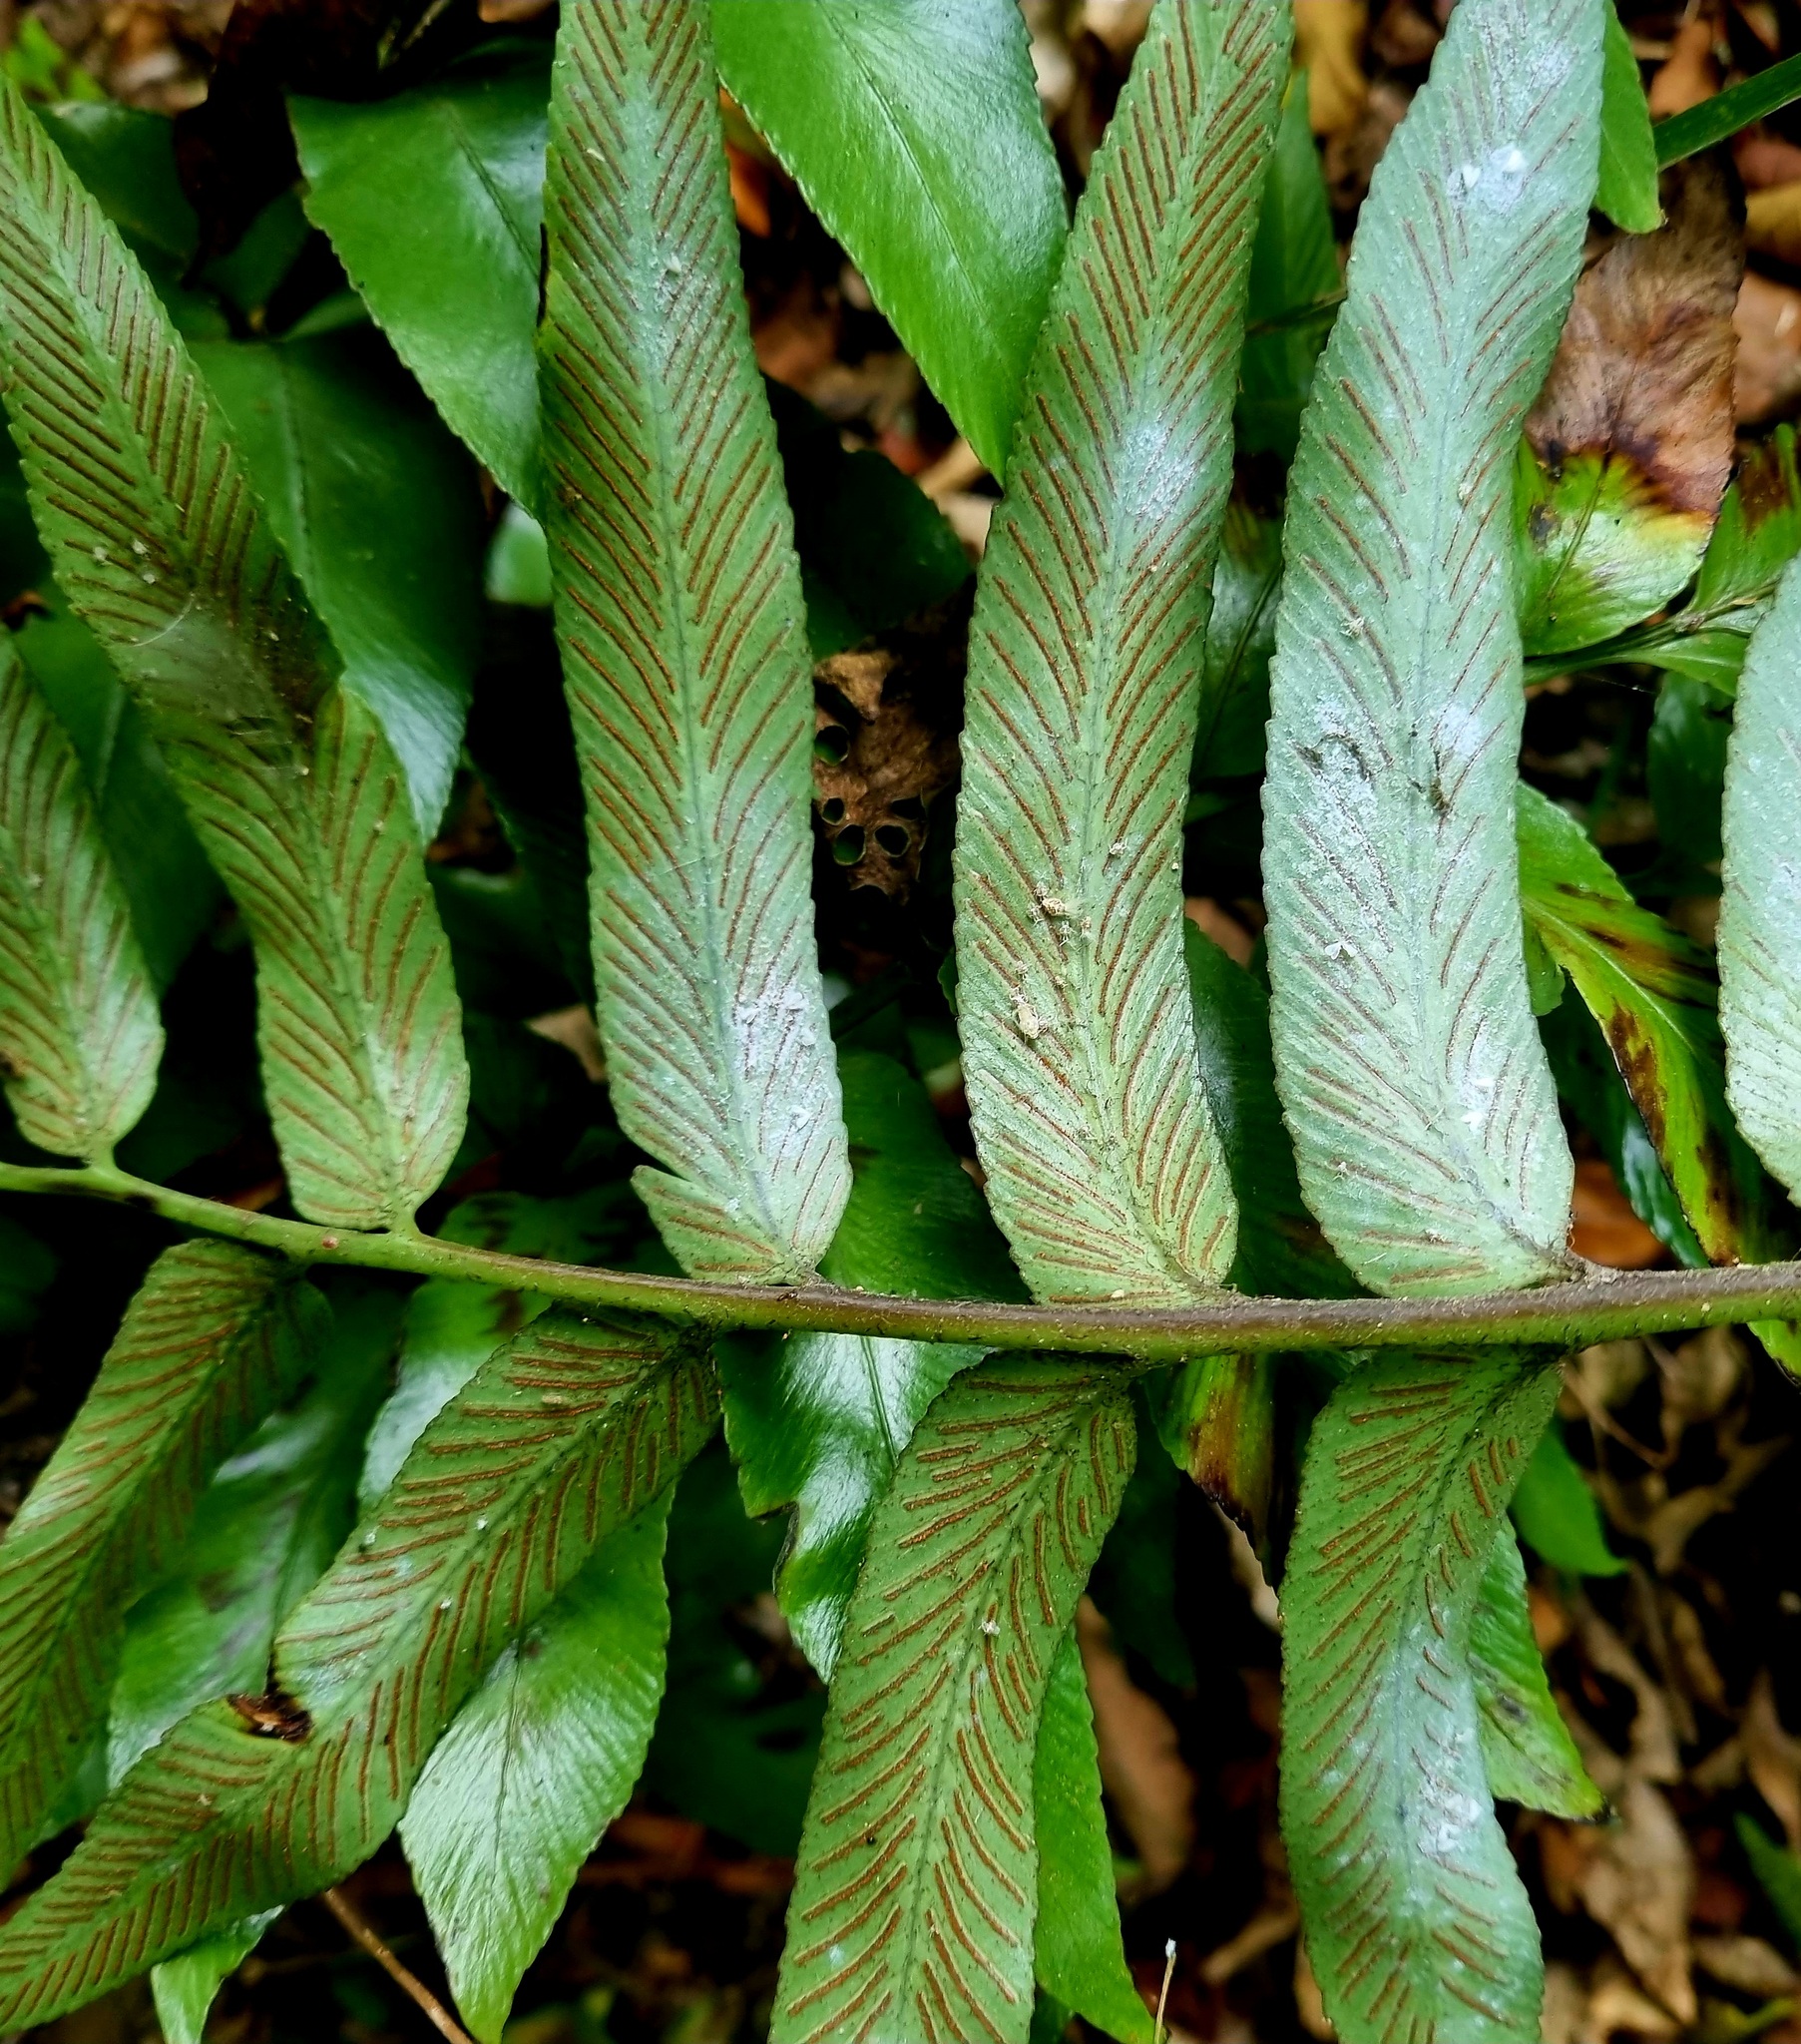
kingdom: Plantae
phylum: Tracheophyta
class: Polypodiopsida
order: Polypodiales
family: Aspleniaceae
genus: Asplenium
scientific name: Asplenium oblongifolium
